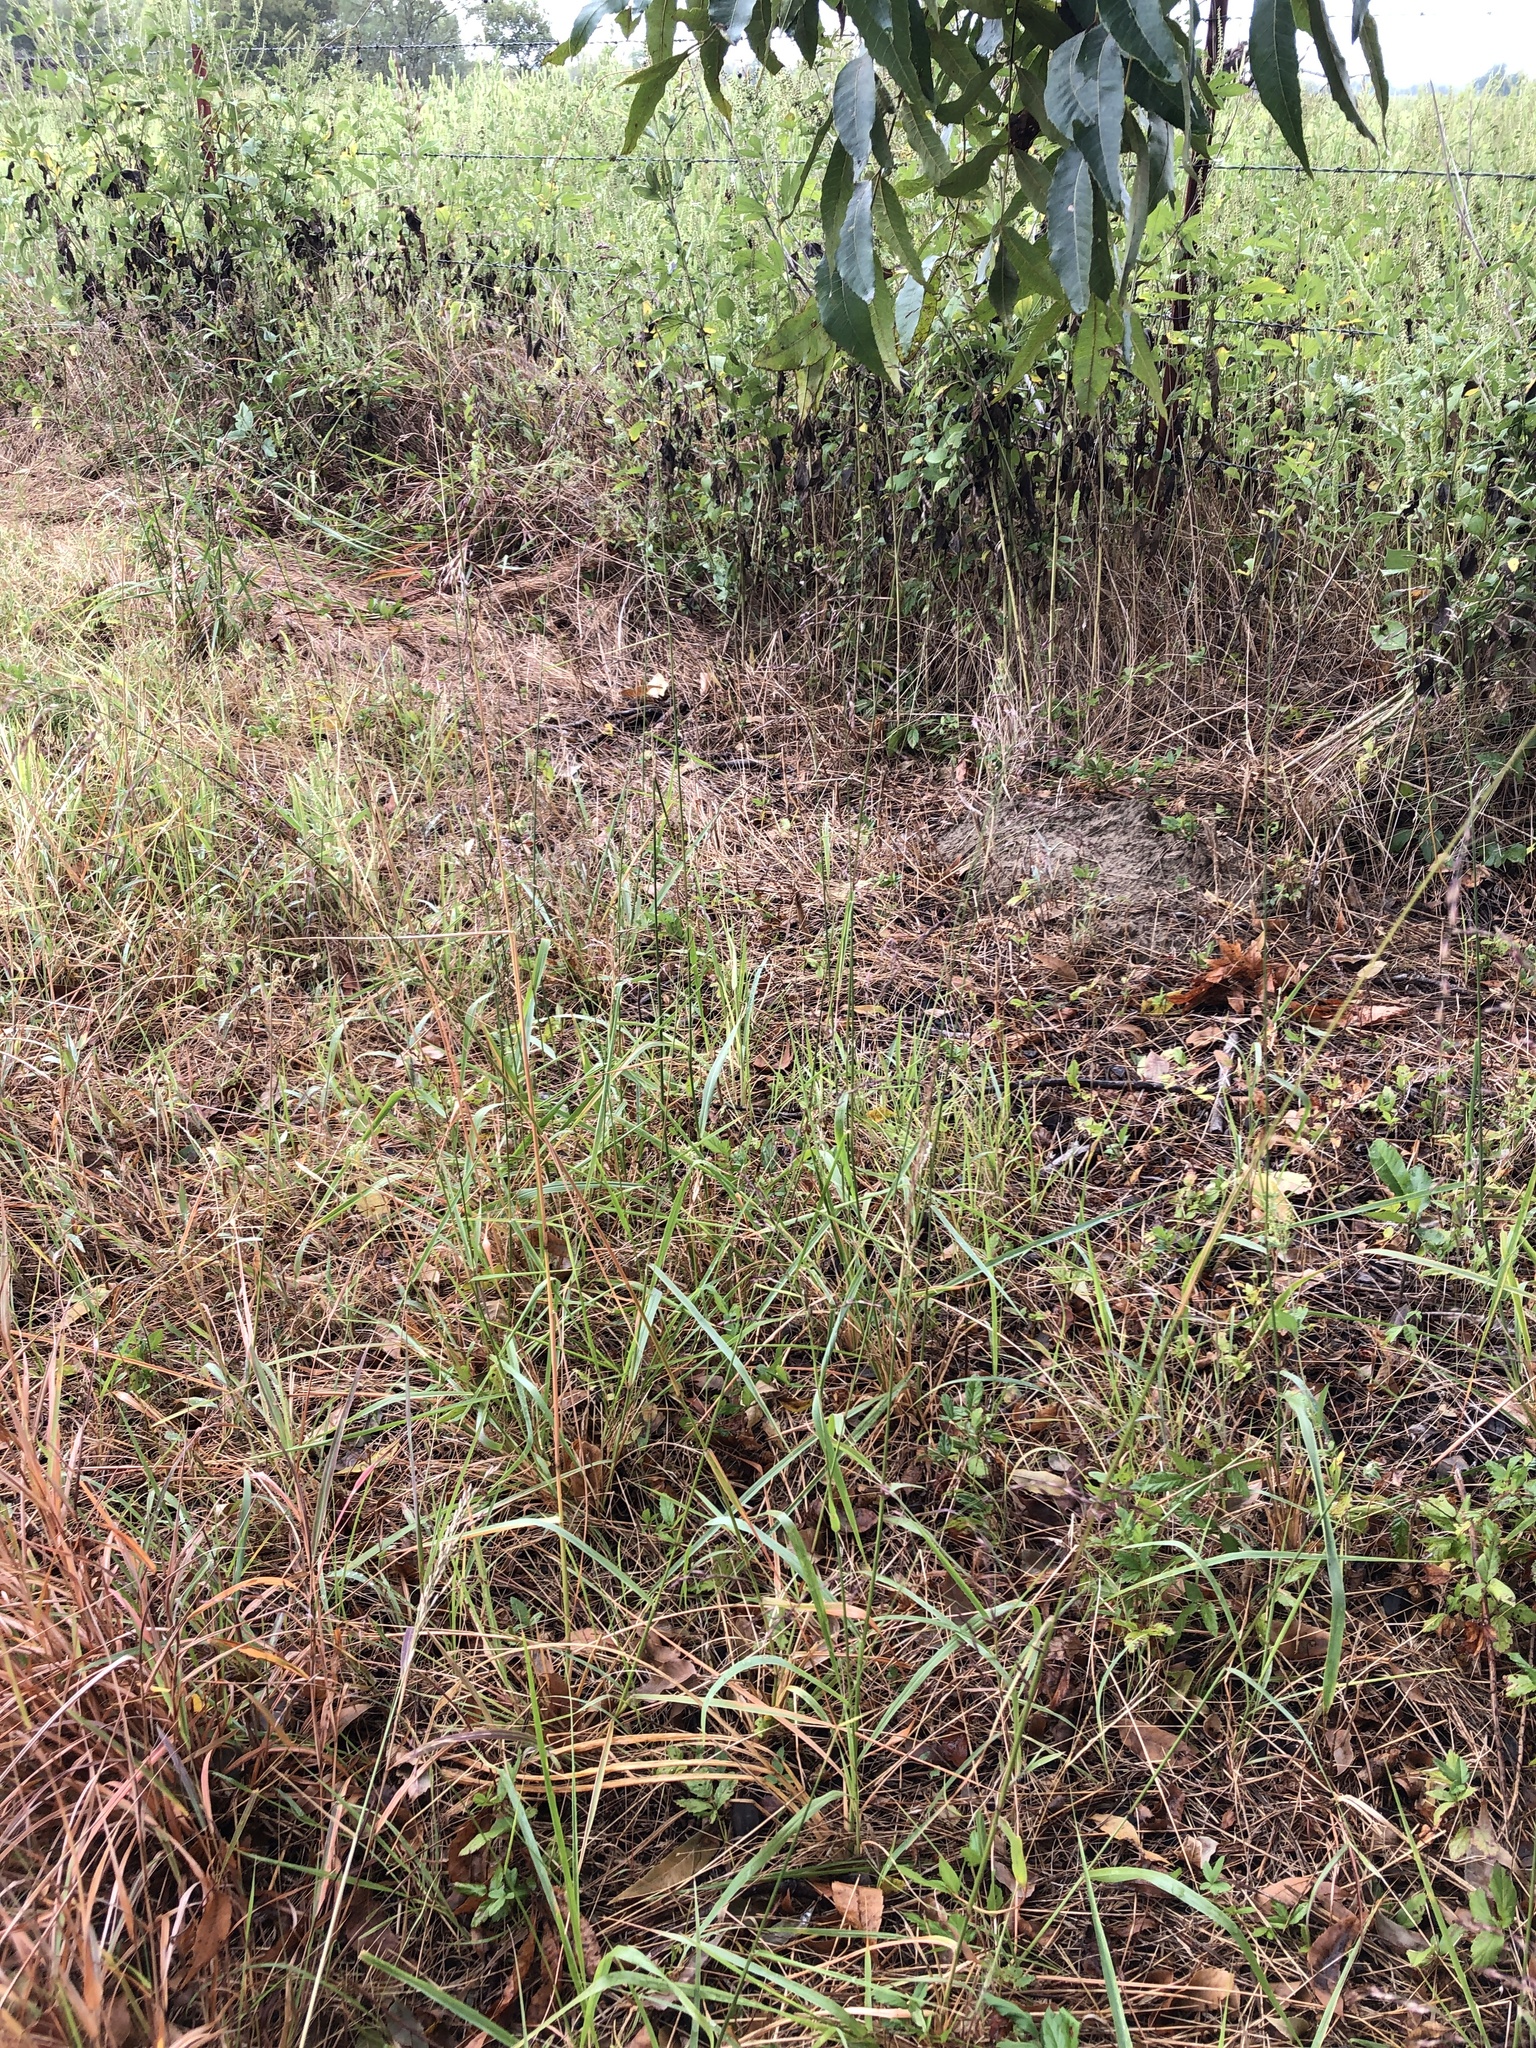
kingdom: Plantae
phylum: Tracheophyta
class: Liliopsida
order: Poales
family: Poaceae
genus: Tridens
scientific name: Tridens flavus
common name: Purpletop
